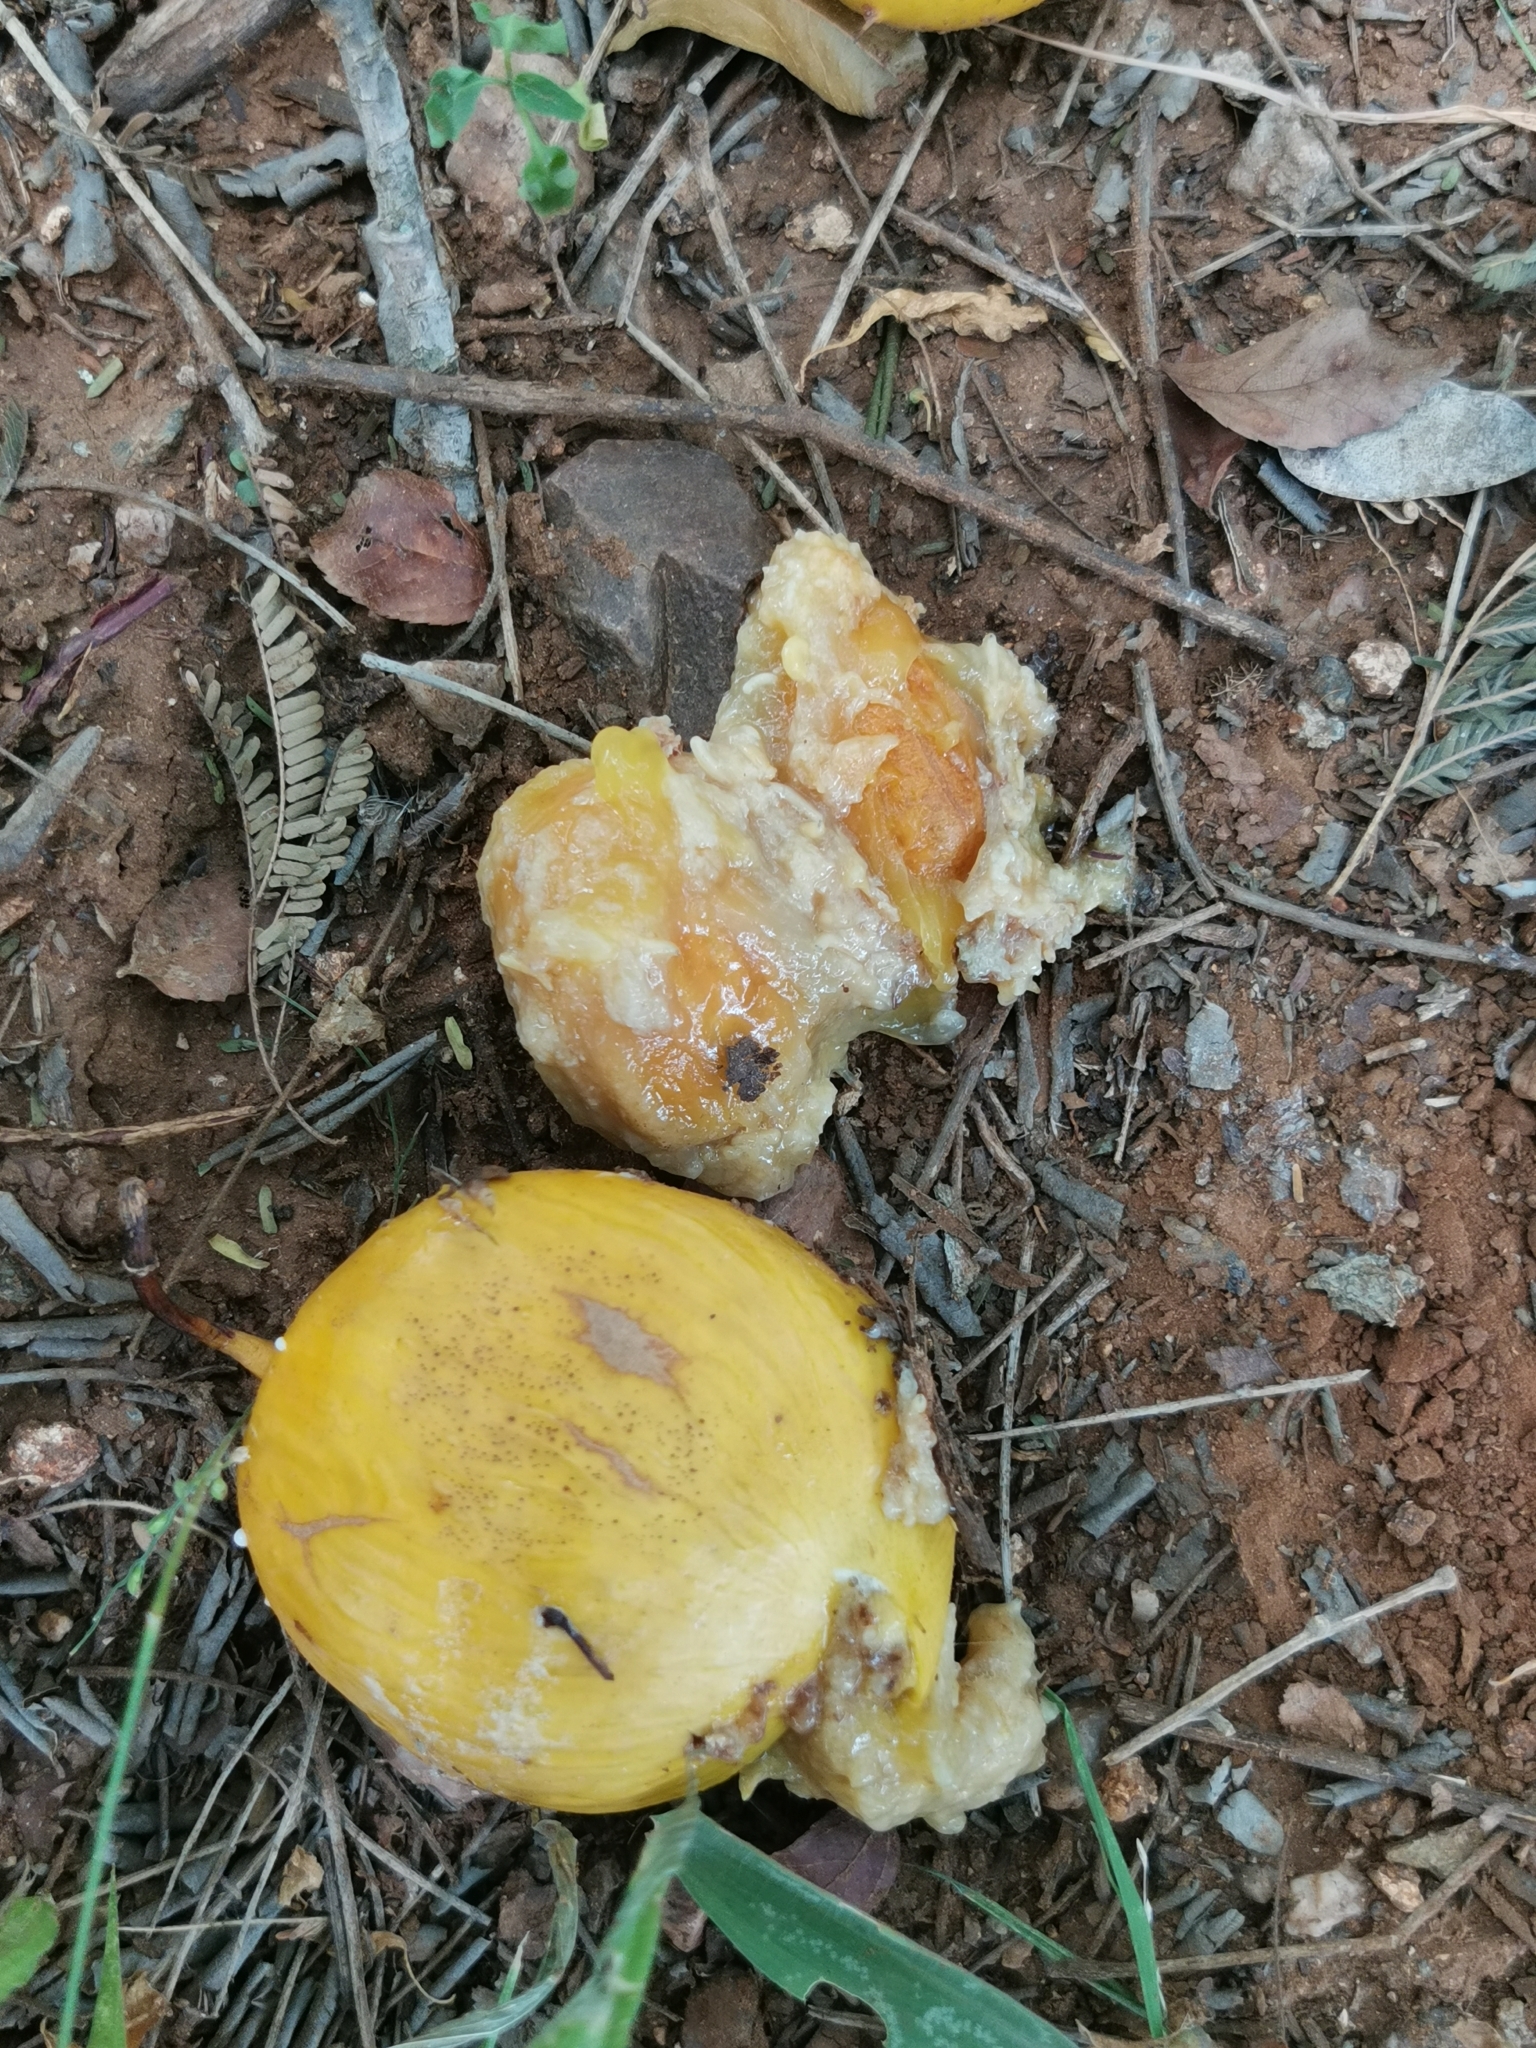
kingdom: Plantae
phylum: Tracheophyta
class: Magnoliopsida
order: Fabales
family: Fabaceae
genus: Cordyla
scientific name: Cordyla africana
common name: Wild mango
